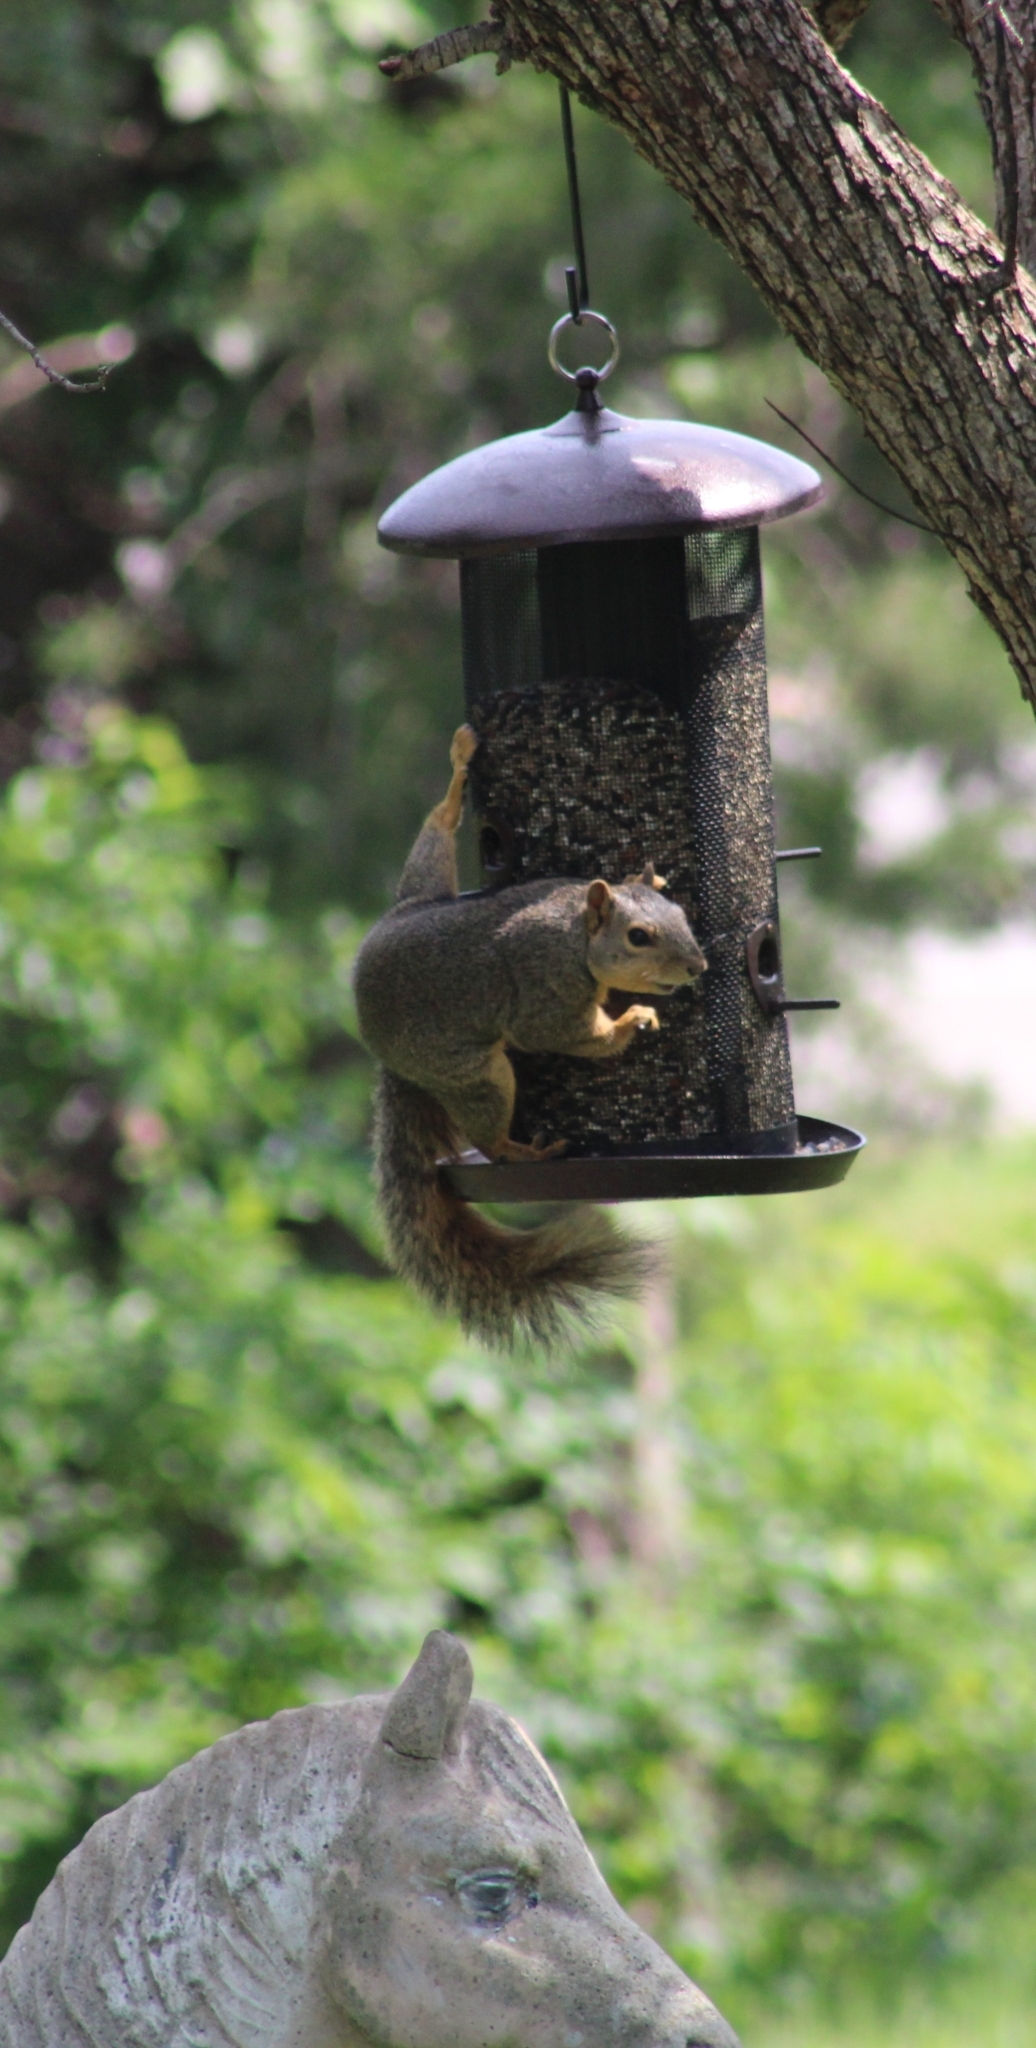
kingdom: Animalia
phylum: Chordata
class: Mammalia
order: Rodentia
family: Sciuridae
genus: Sciurus
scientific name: Sciurus niger
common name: Fox squirrel
